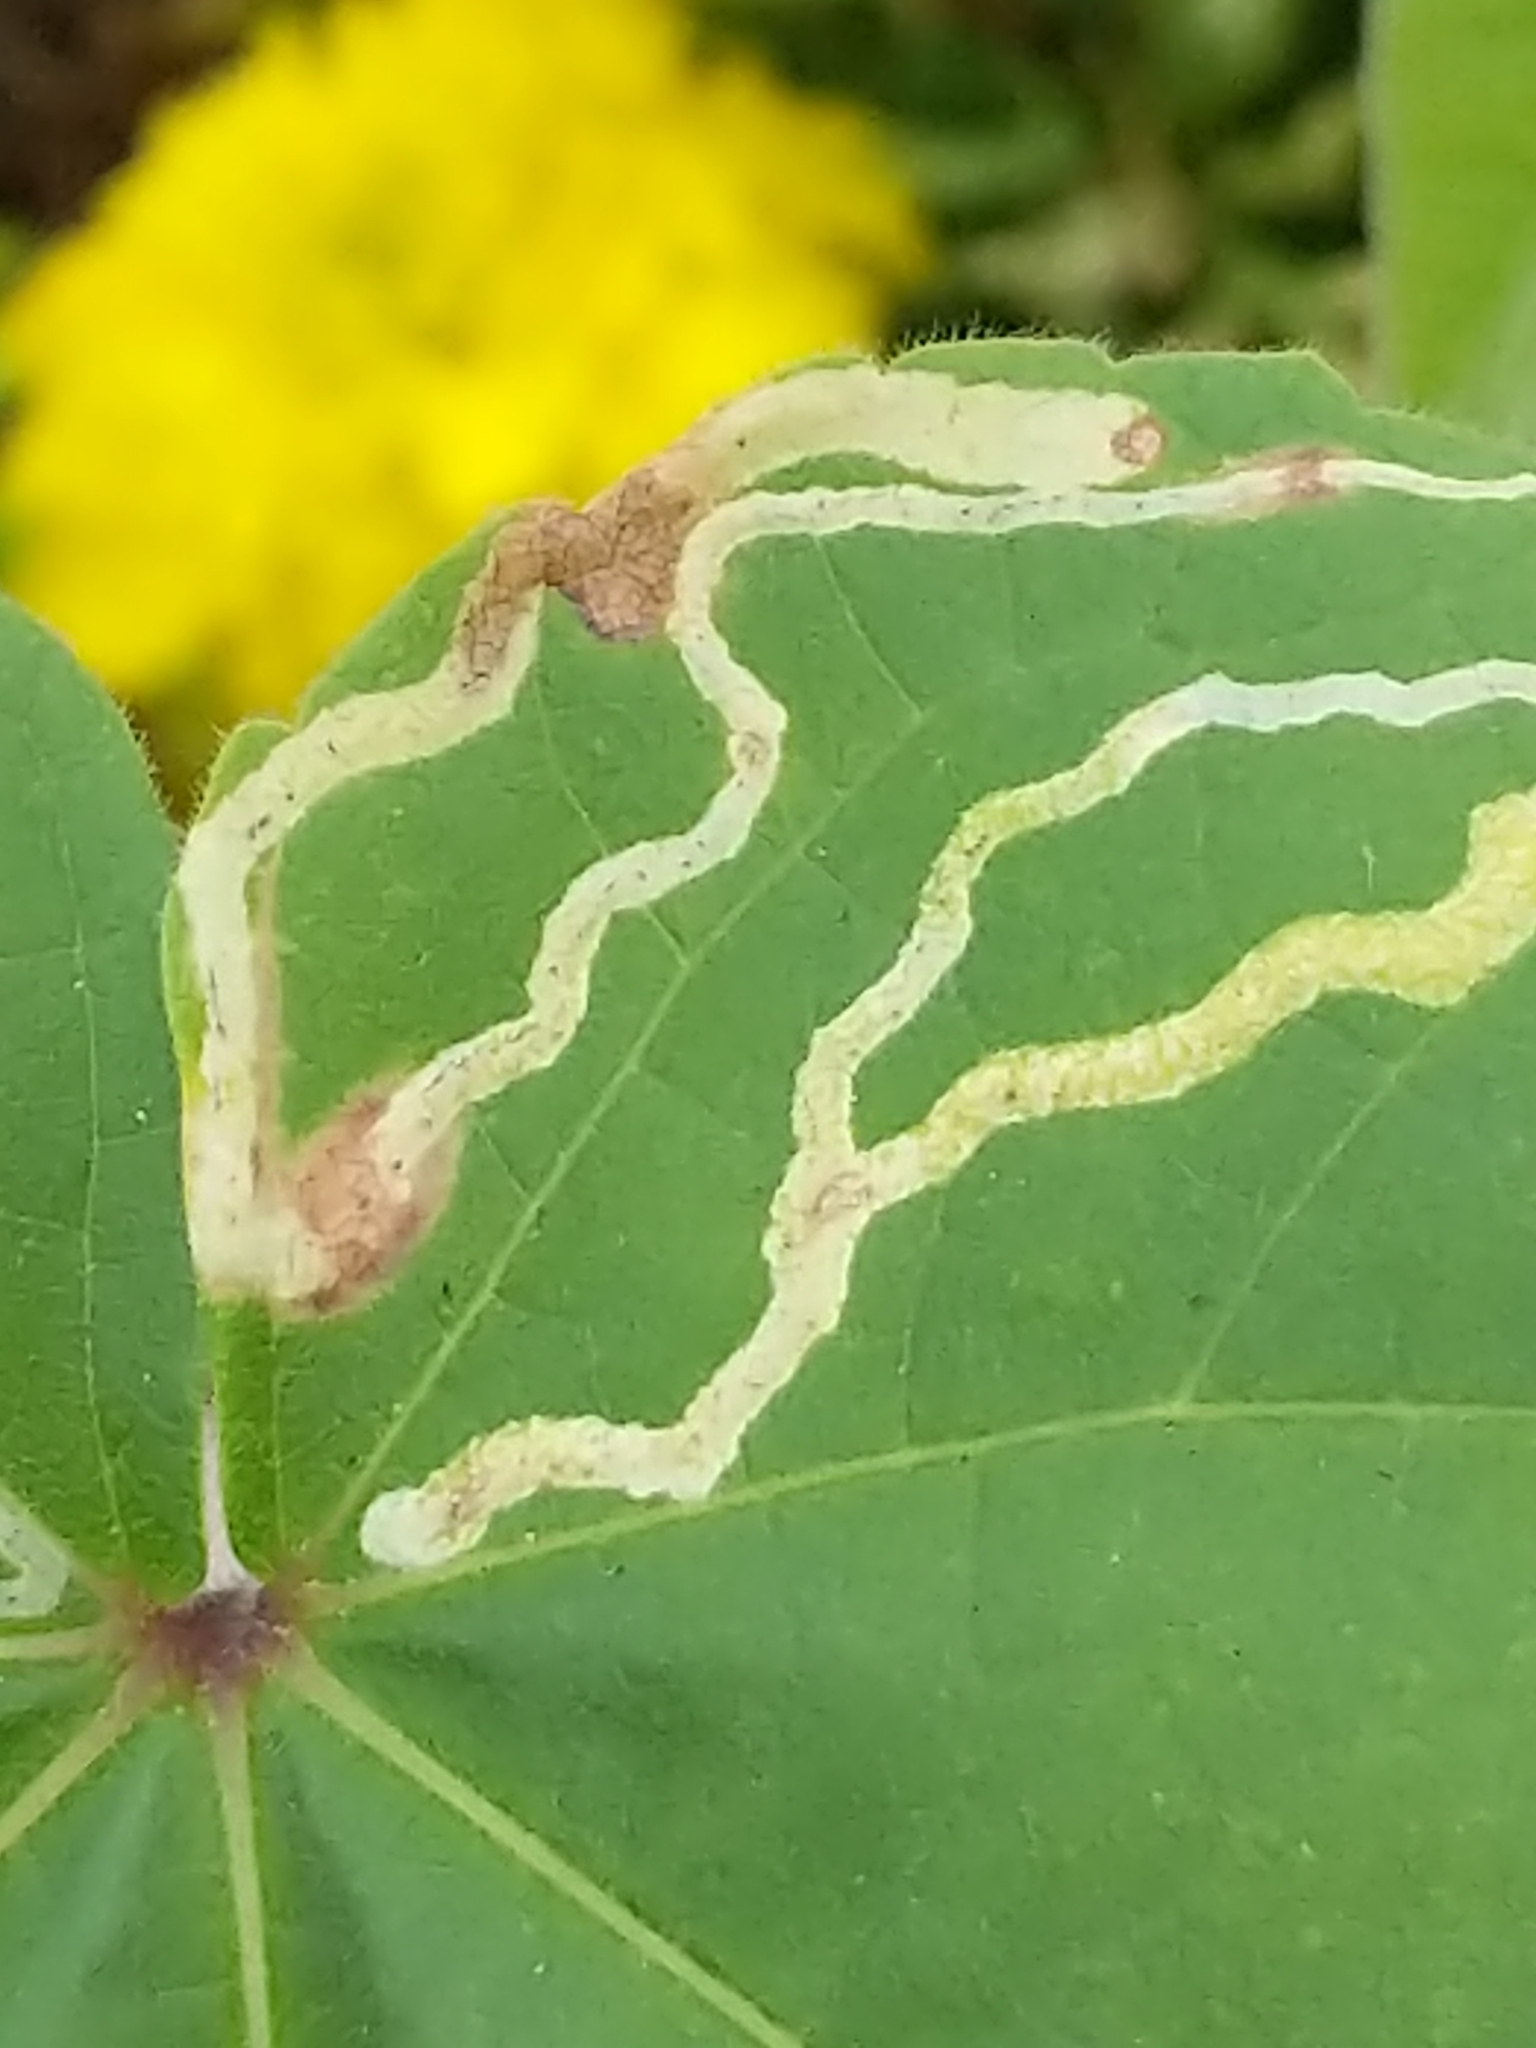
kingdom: Plantae
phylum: Tracheophyta
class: Magnoliopsida
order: Malvales
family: Malvaceae
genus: Abutilon
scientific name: Abutilon theophrasti
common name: Velvetleaf
